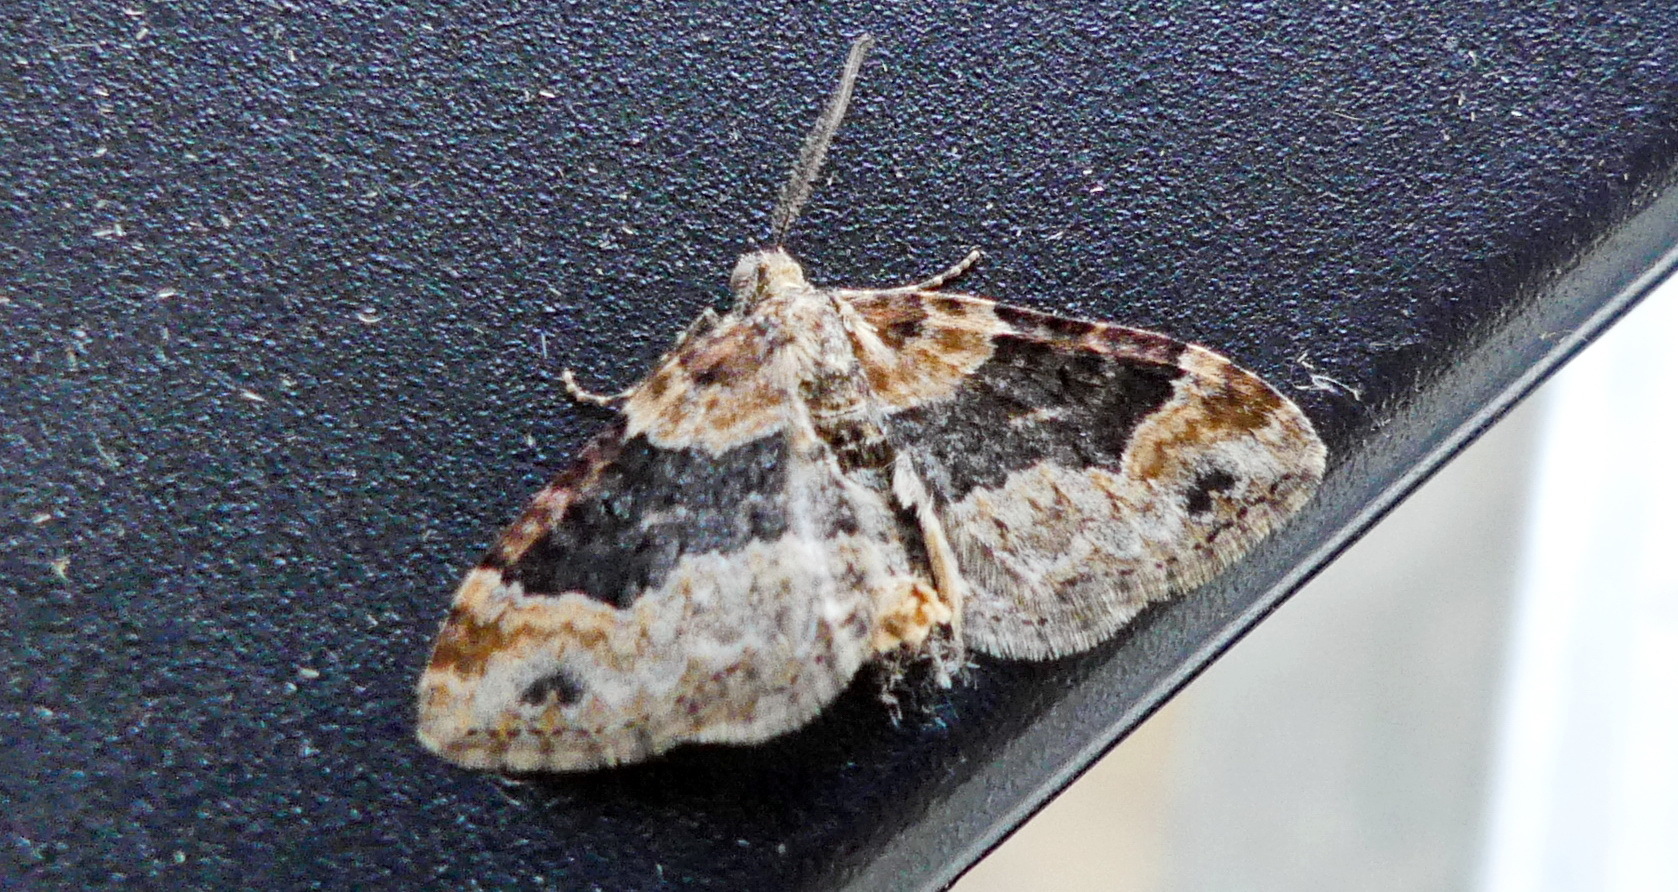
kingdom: Animalia
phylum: Arthropoda
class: Insecta
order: Lepidoptera
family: Geometridae
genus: Xanthorhoe
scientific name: Xanthorhoe ferrugata
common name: Dark-barred twin-spot carpet
